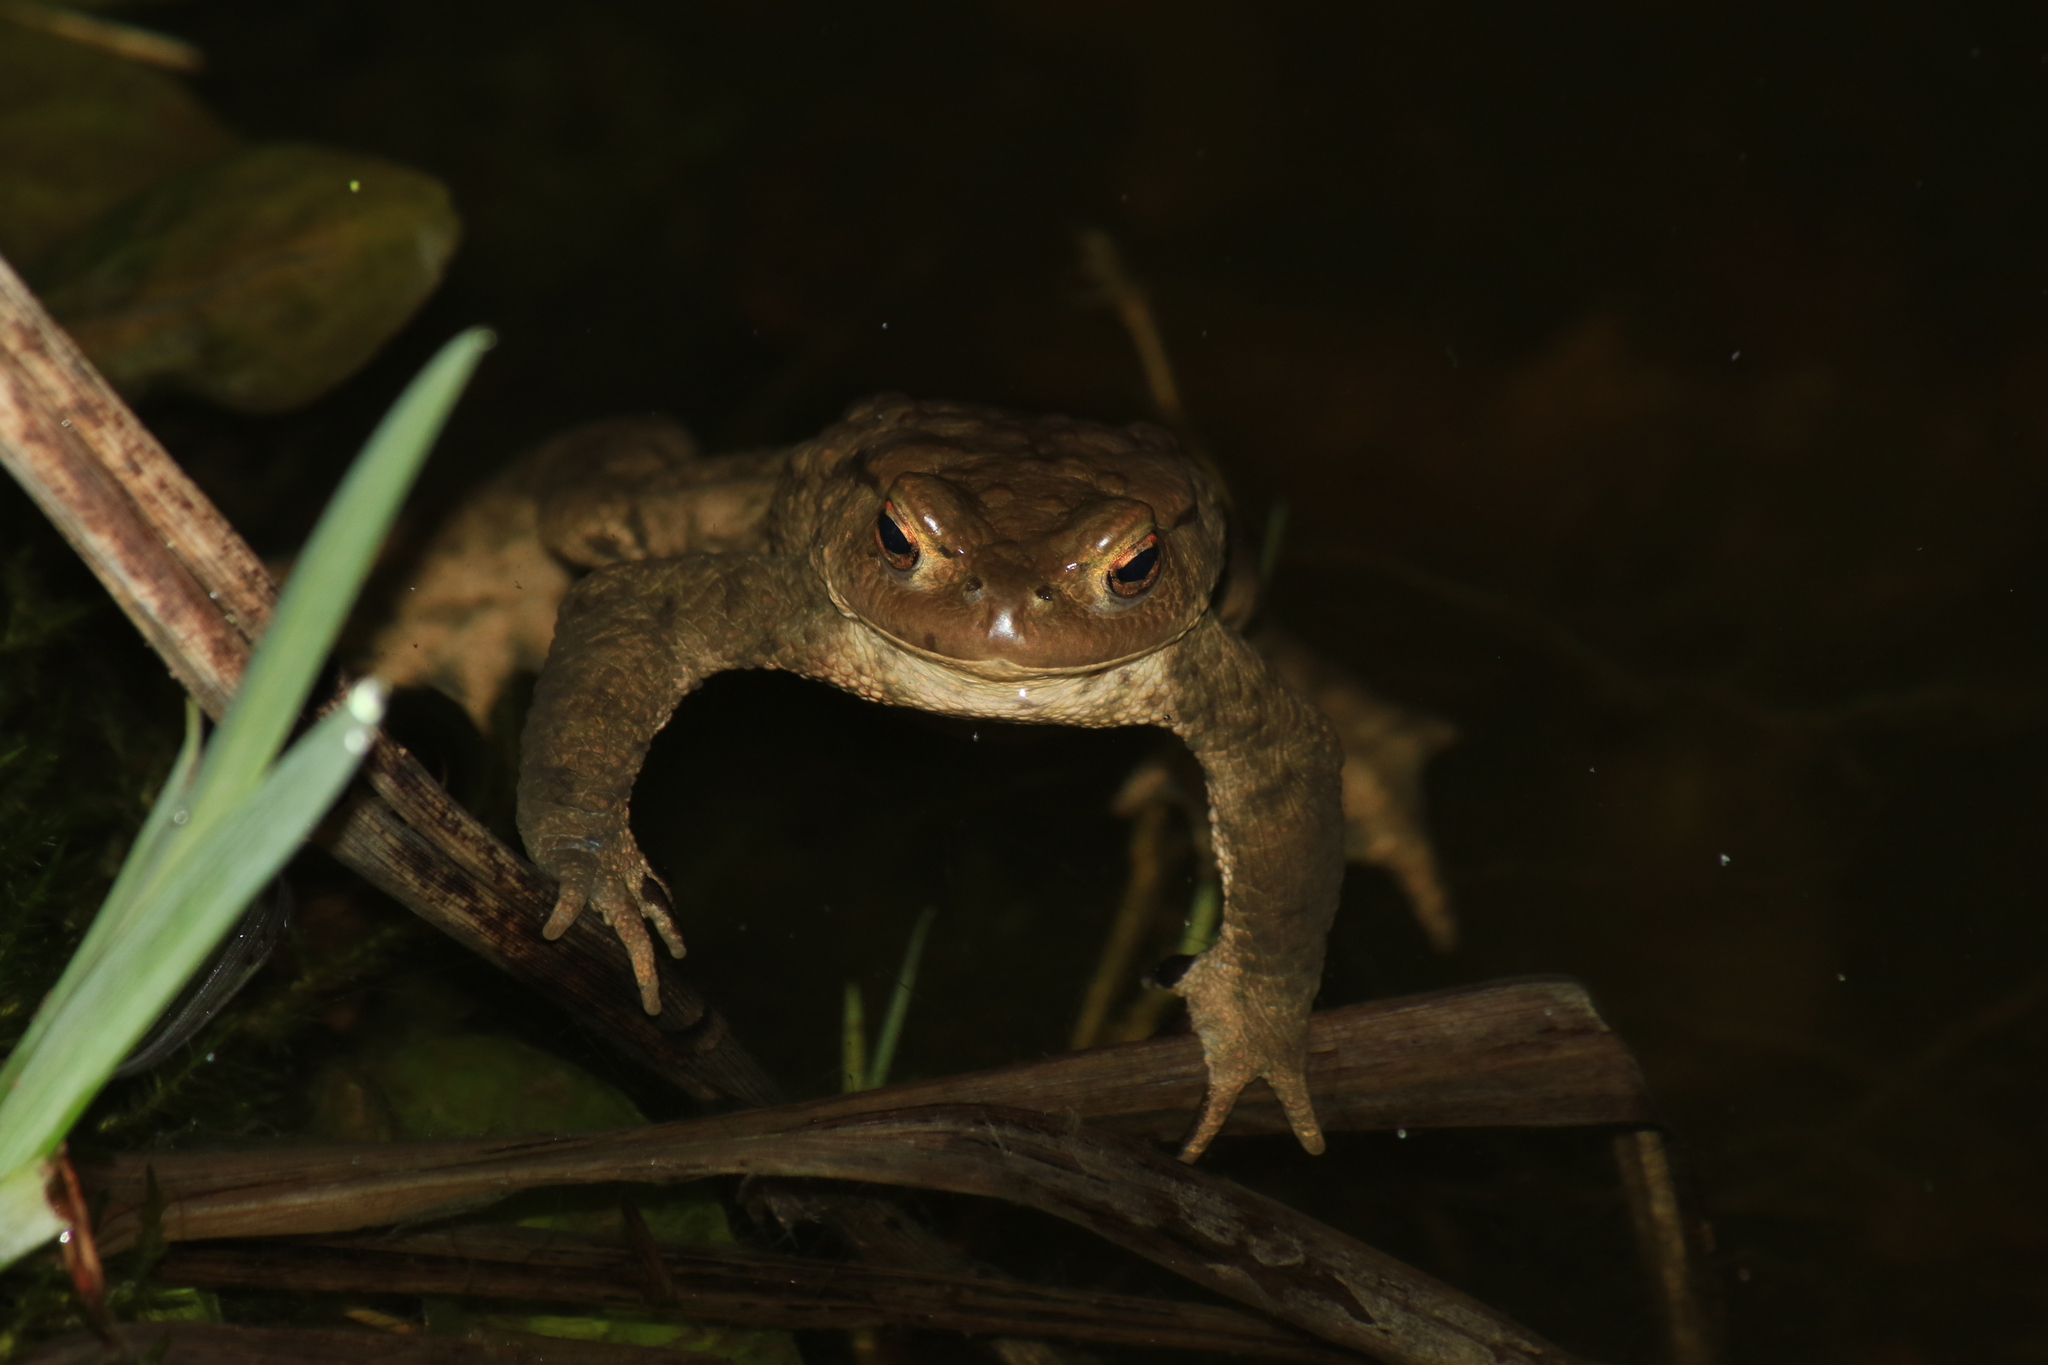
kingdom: Animalia
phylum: Chordata
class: Amphibia
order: Anura
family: Bufonidae
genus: Bufo
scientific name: Bufo bufo
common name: Common toad
